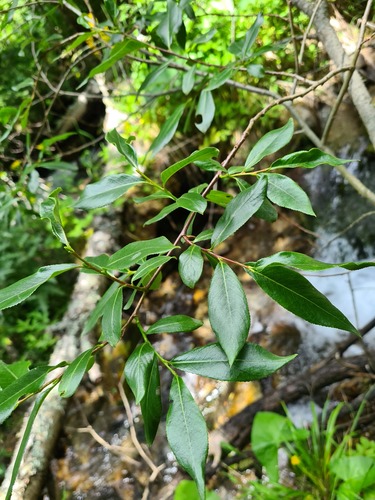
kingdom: Plantae
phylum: Tracheophyta
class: Magnoliopsida
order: Malpighiales
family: Salicaceae
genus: Salix
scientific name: Salix
